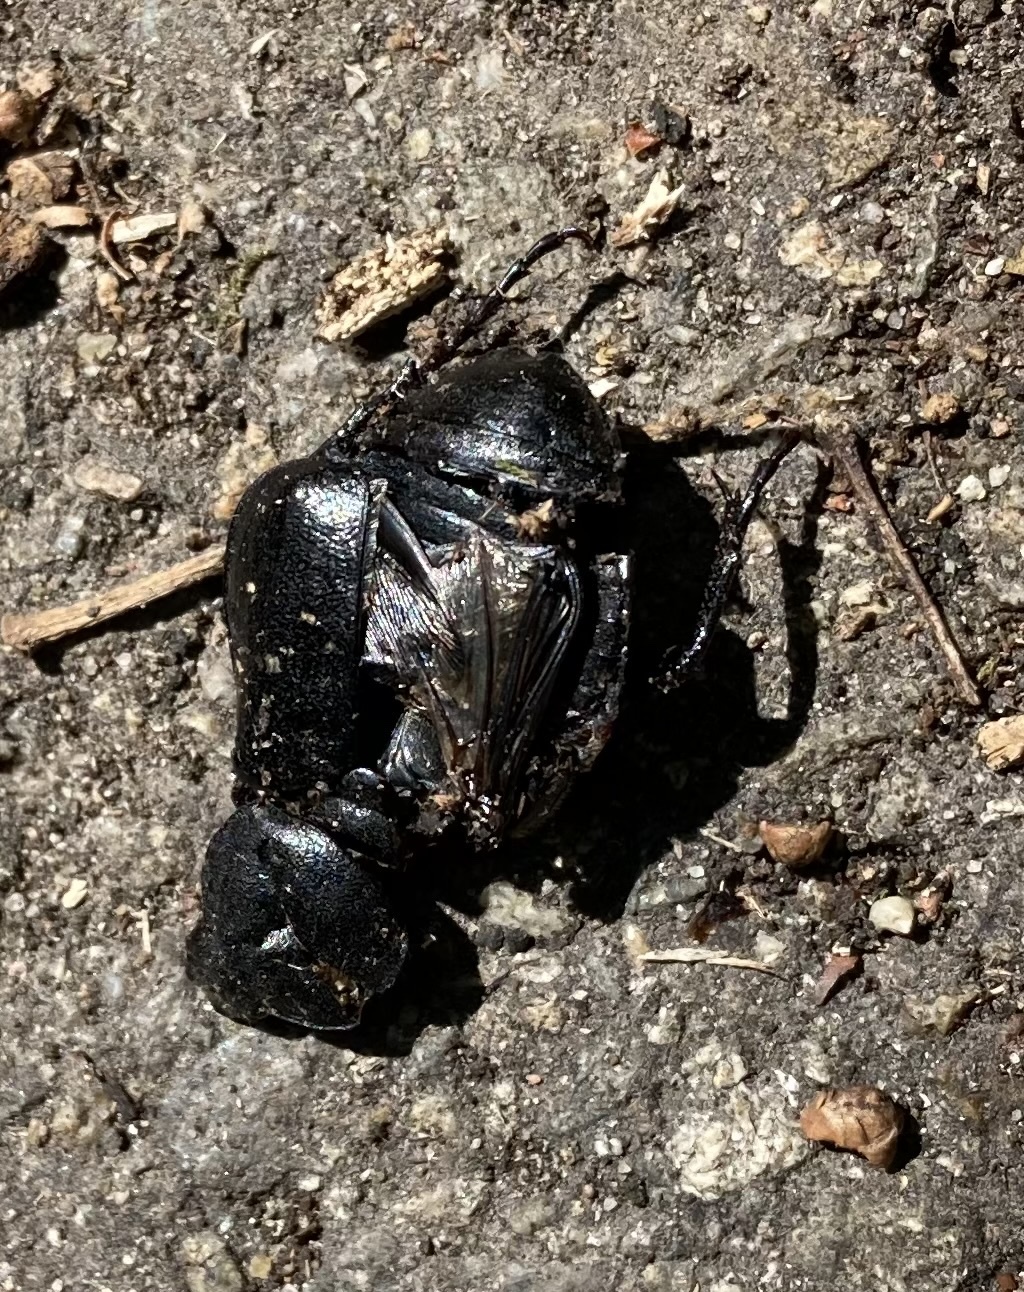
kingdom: Animalia
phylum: Arthropoda
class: Insecta
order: Coleoptera
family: Scarabaeidae
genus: Gnorimus
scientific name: Gnorimus variabilis
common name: Variable chafer
